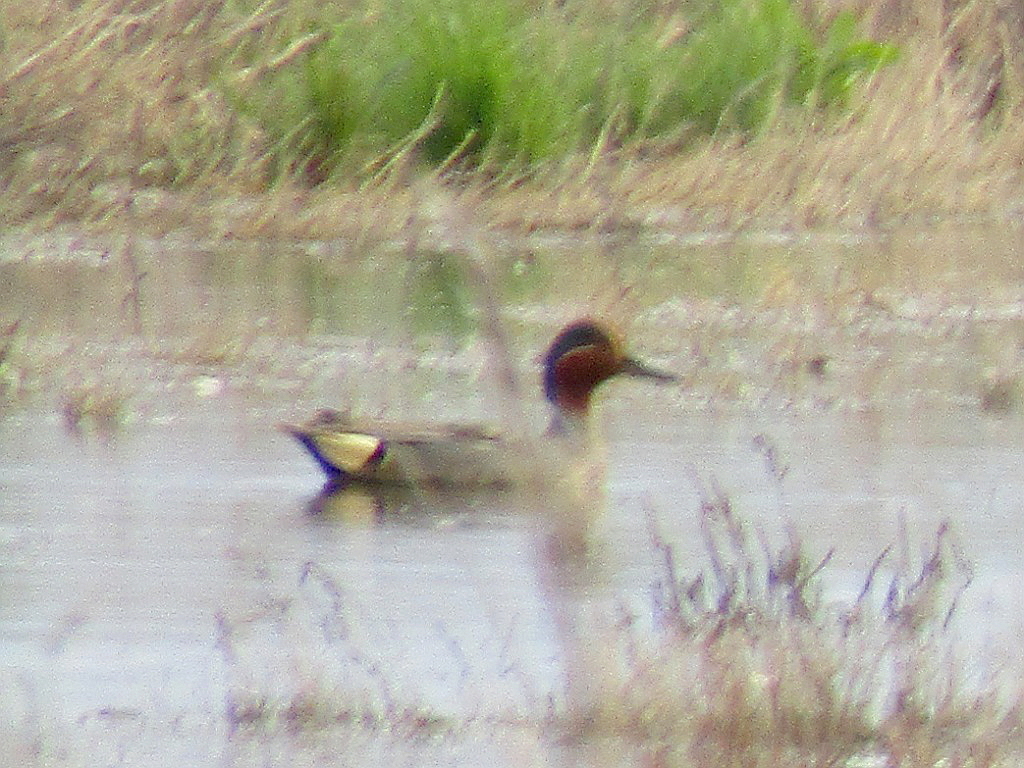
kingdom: Animalia
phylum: Chordata
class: Aves
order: Anseriformes
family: Anatidae
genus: Anas
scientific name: Anas crecca
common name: Eurasian teal
